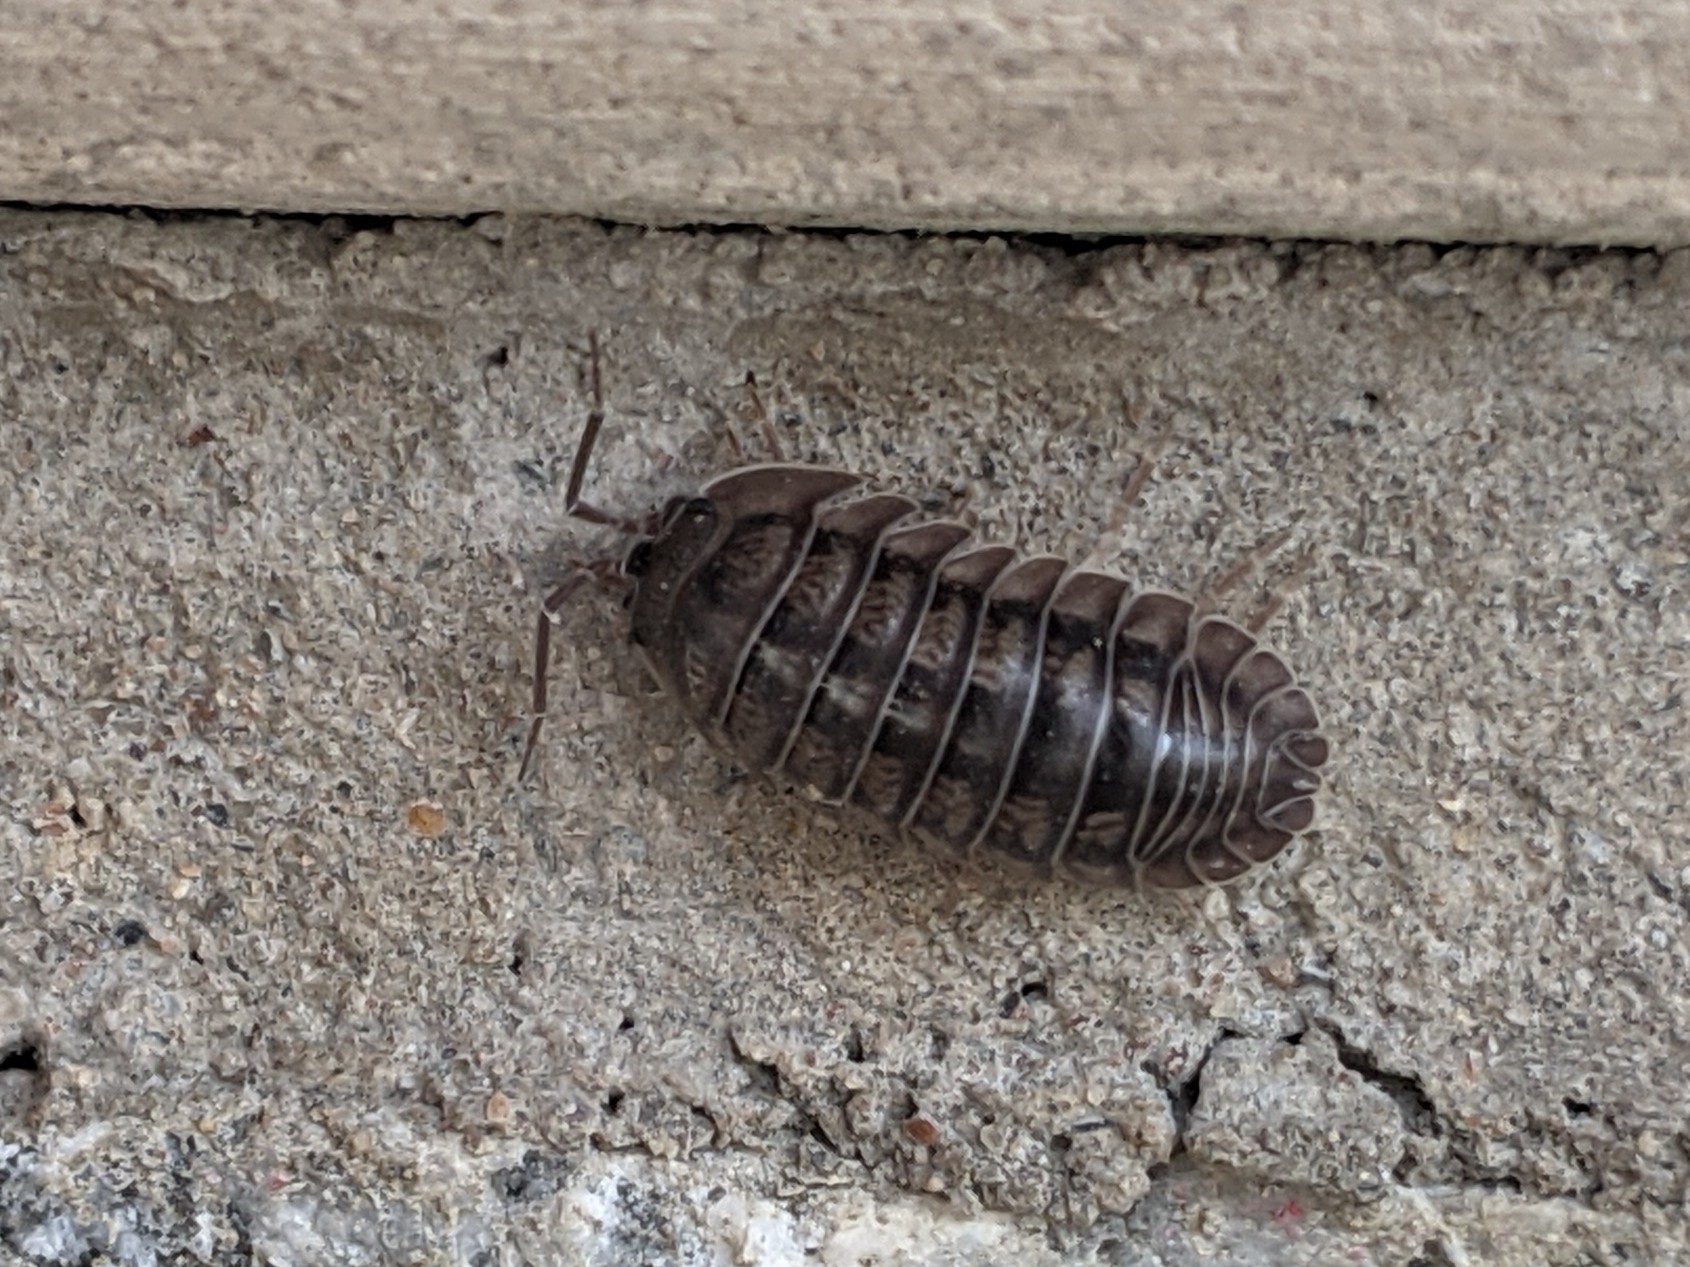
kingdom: Animalia
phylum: Arthropoda
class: Malacostraca
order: Isopoda
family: Armadillidiidae
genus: Armadillidium
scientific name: Armadillidium nasatum
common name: Isopod
